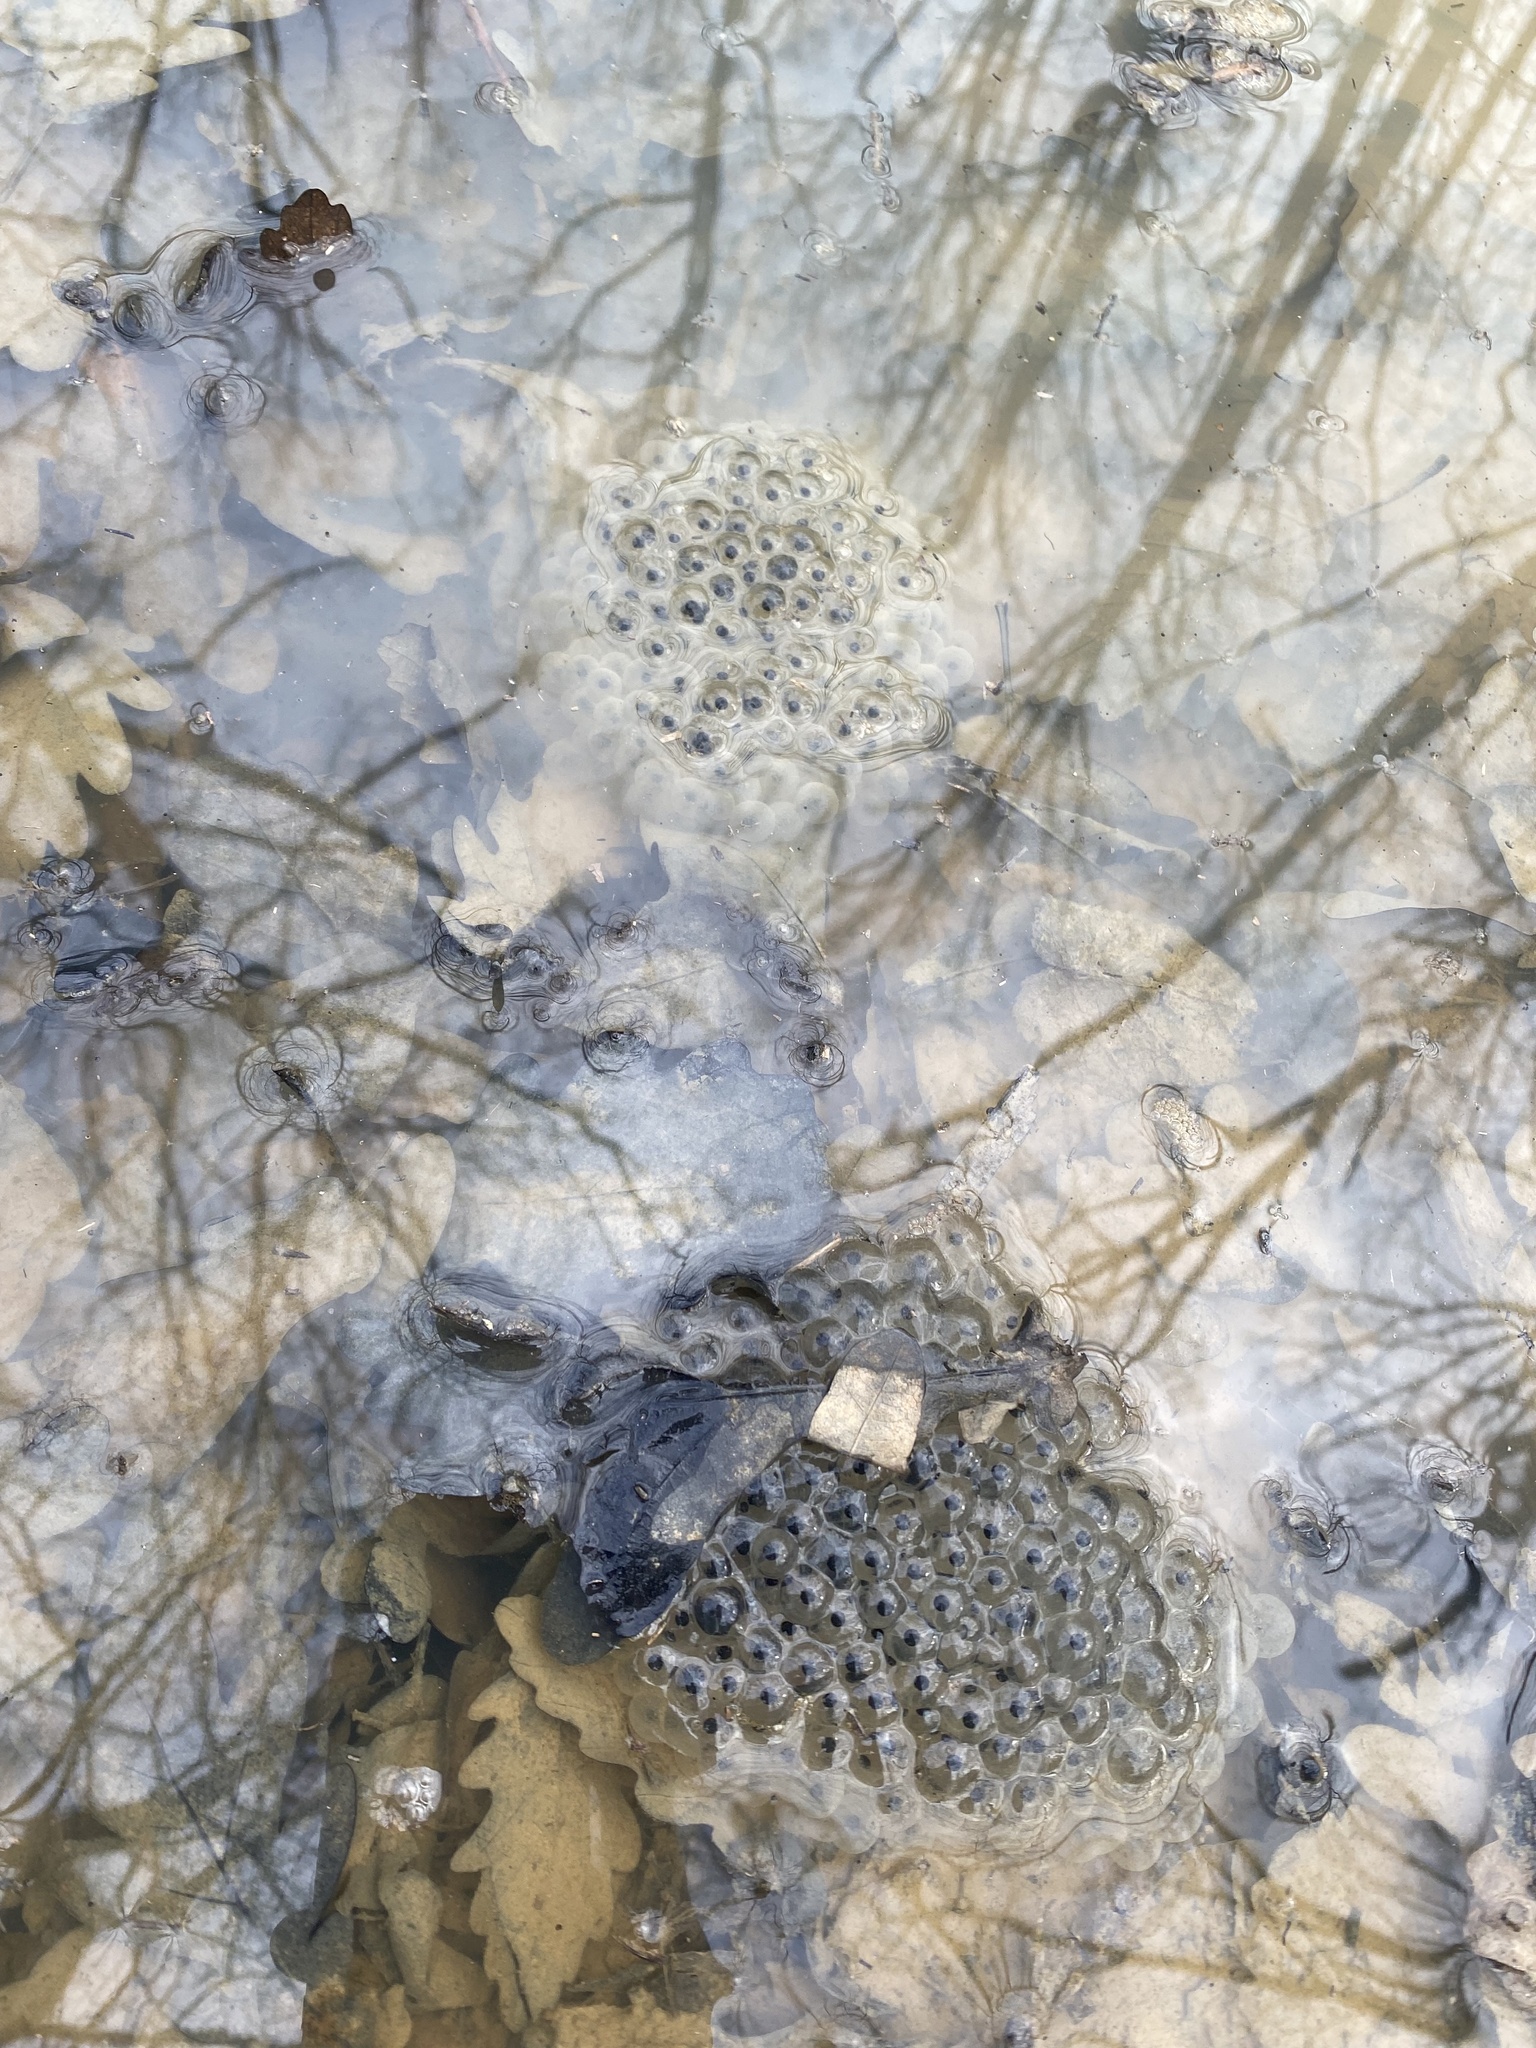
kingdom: Animalia
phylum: Chordata
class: Amphibia
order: Anura
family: Ranidae
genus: Rana
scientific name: Rana macrocnemis
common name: Banded frog
